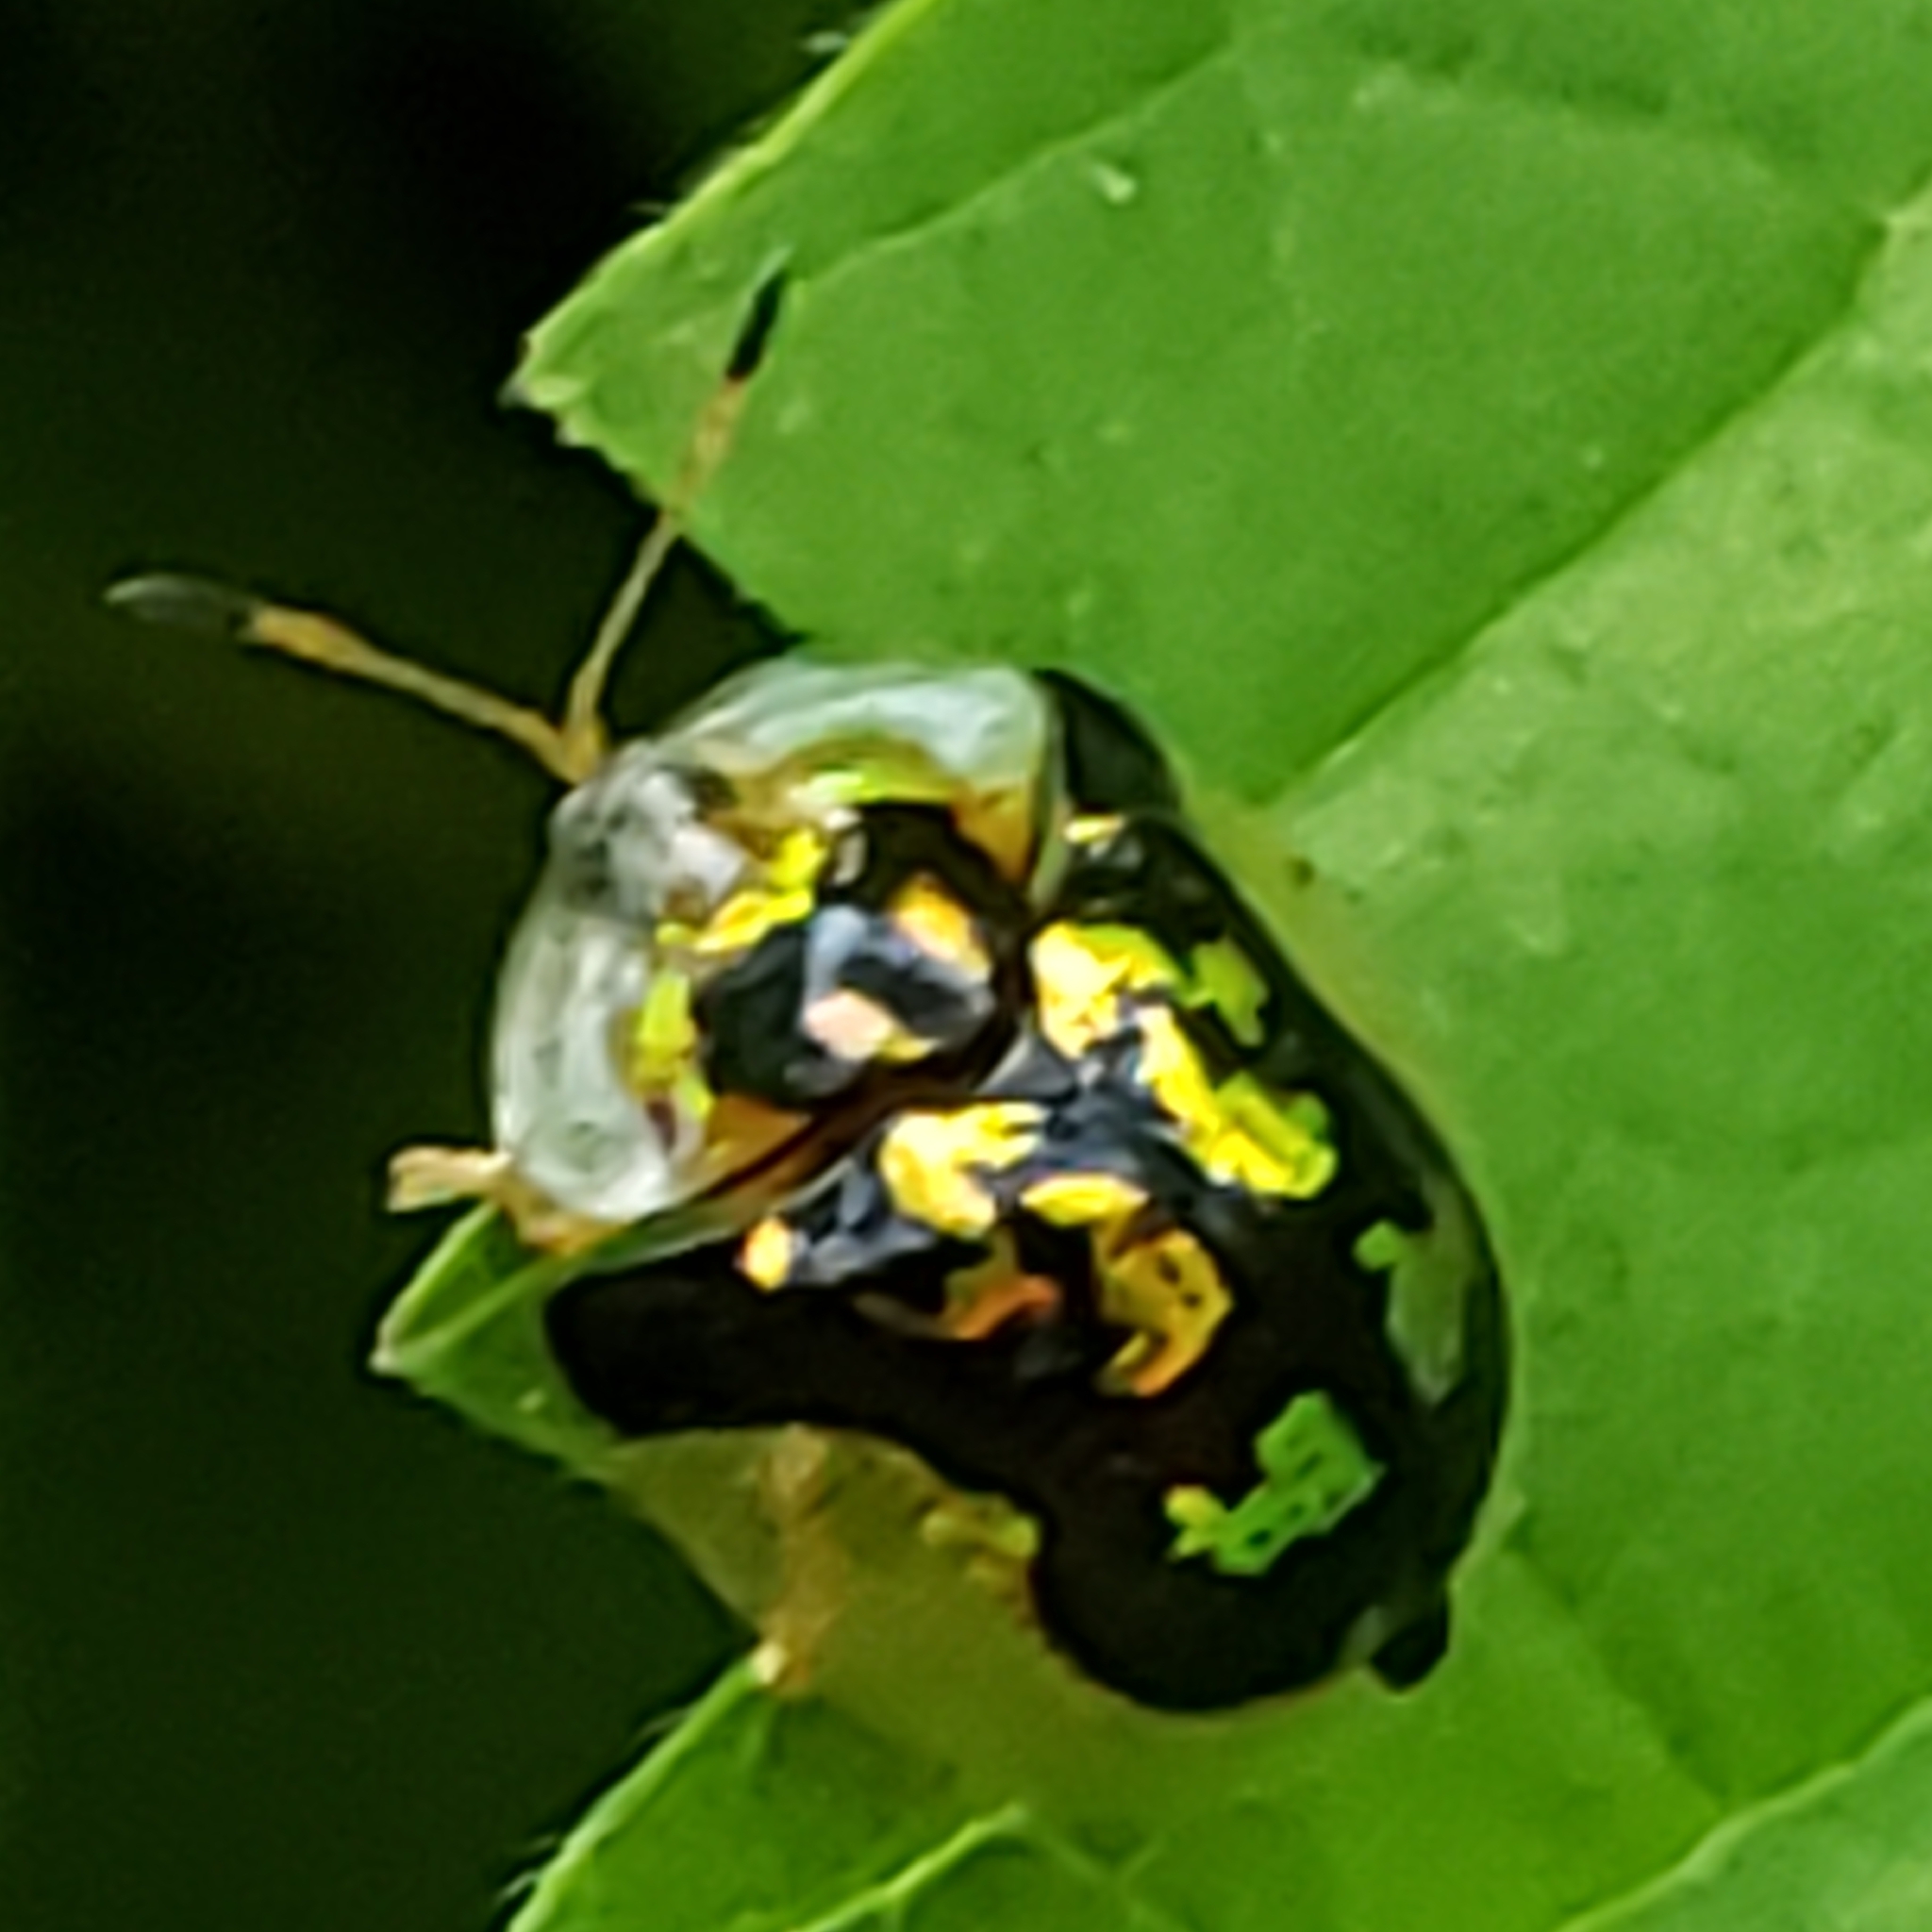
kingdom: Animalia
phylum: Arthropoda
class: Insecta
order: Coleoptera
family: Chrysomelidae
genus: Deloyala
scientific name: Deloyala guttata
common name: Mottled tortoise beetle
